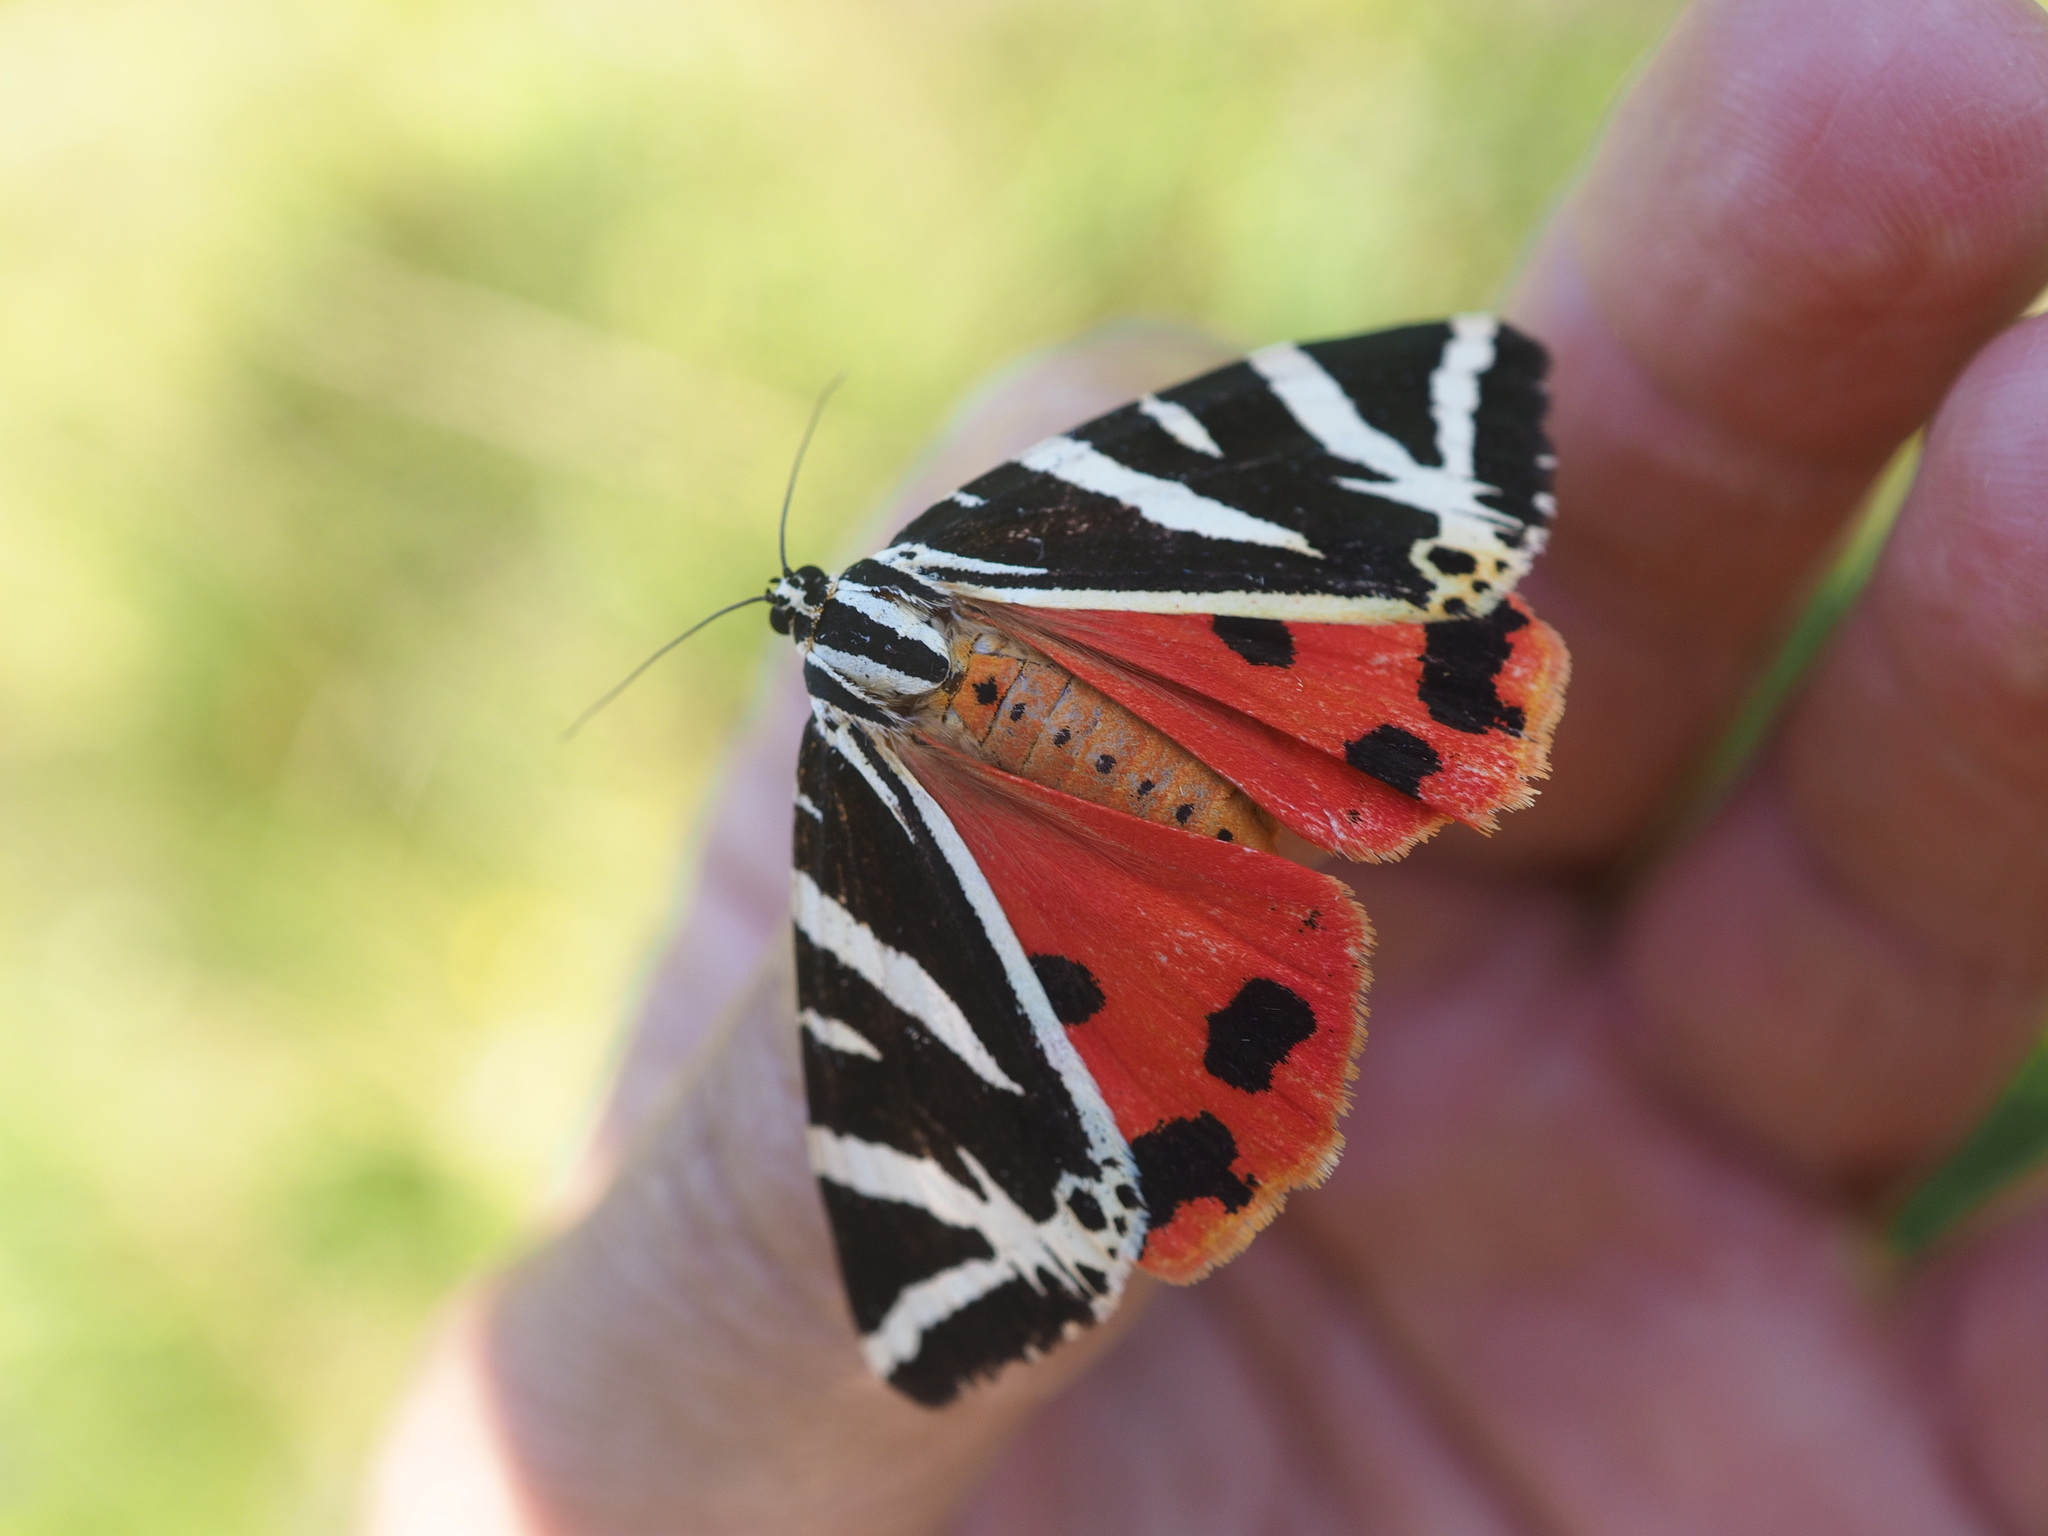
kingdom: Animalia
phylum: Arthropoda
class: Insecta
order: Lepidoptera
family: Erebidae
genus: Euplagia
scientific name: Euplagia quadripunctaria
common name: Jersey tiger
